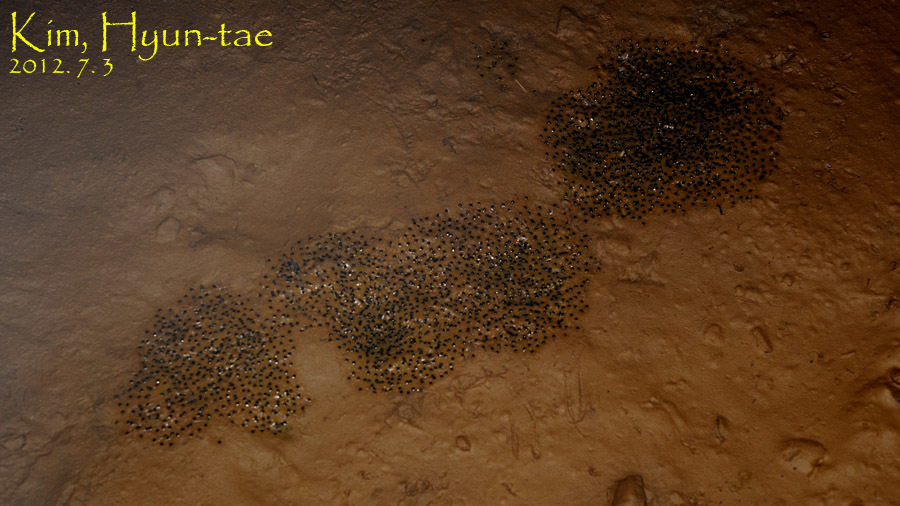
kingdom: Animalia
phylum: Chordata
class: Amphibia
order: Anura
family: Ranidae
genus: Pelophylax
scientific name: Pelophylax nigromaculatus
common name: Black-spotted pond frog
